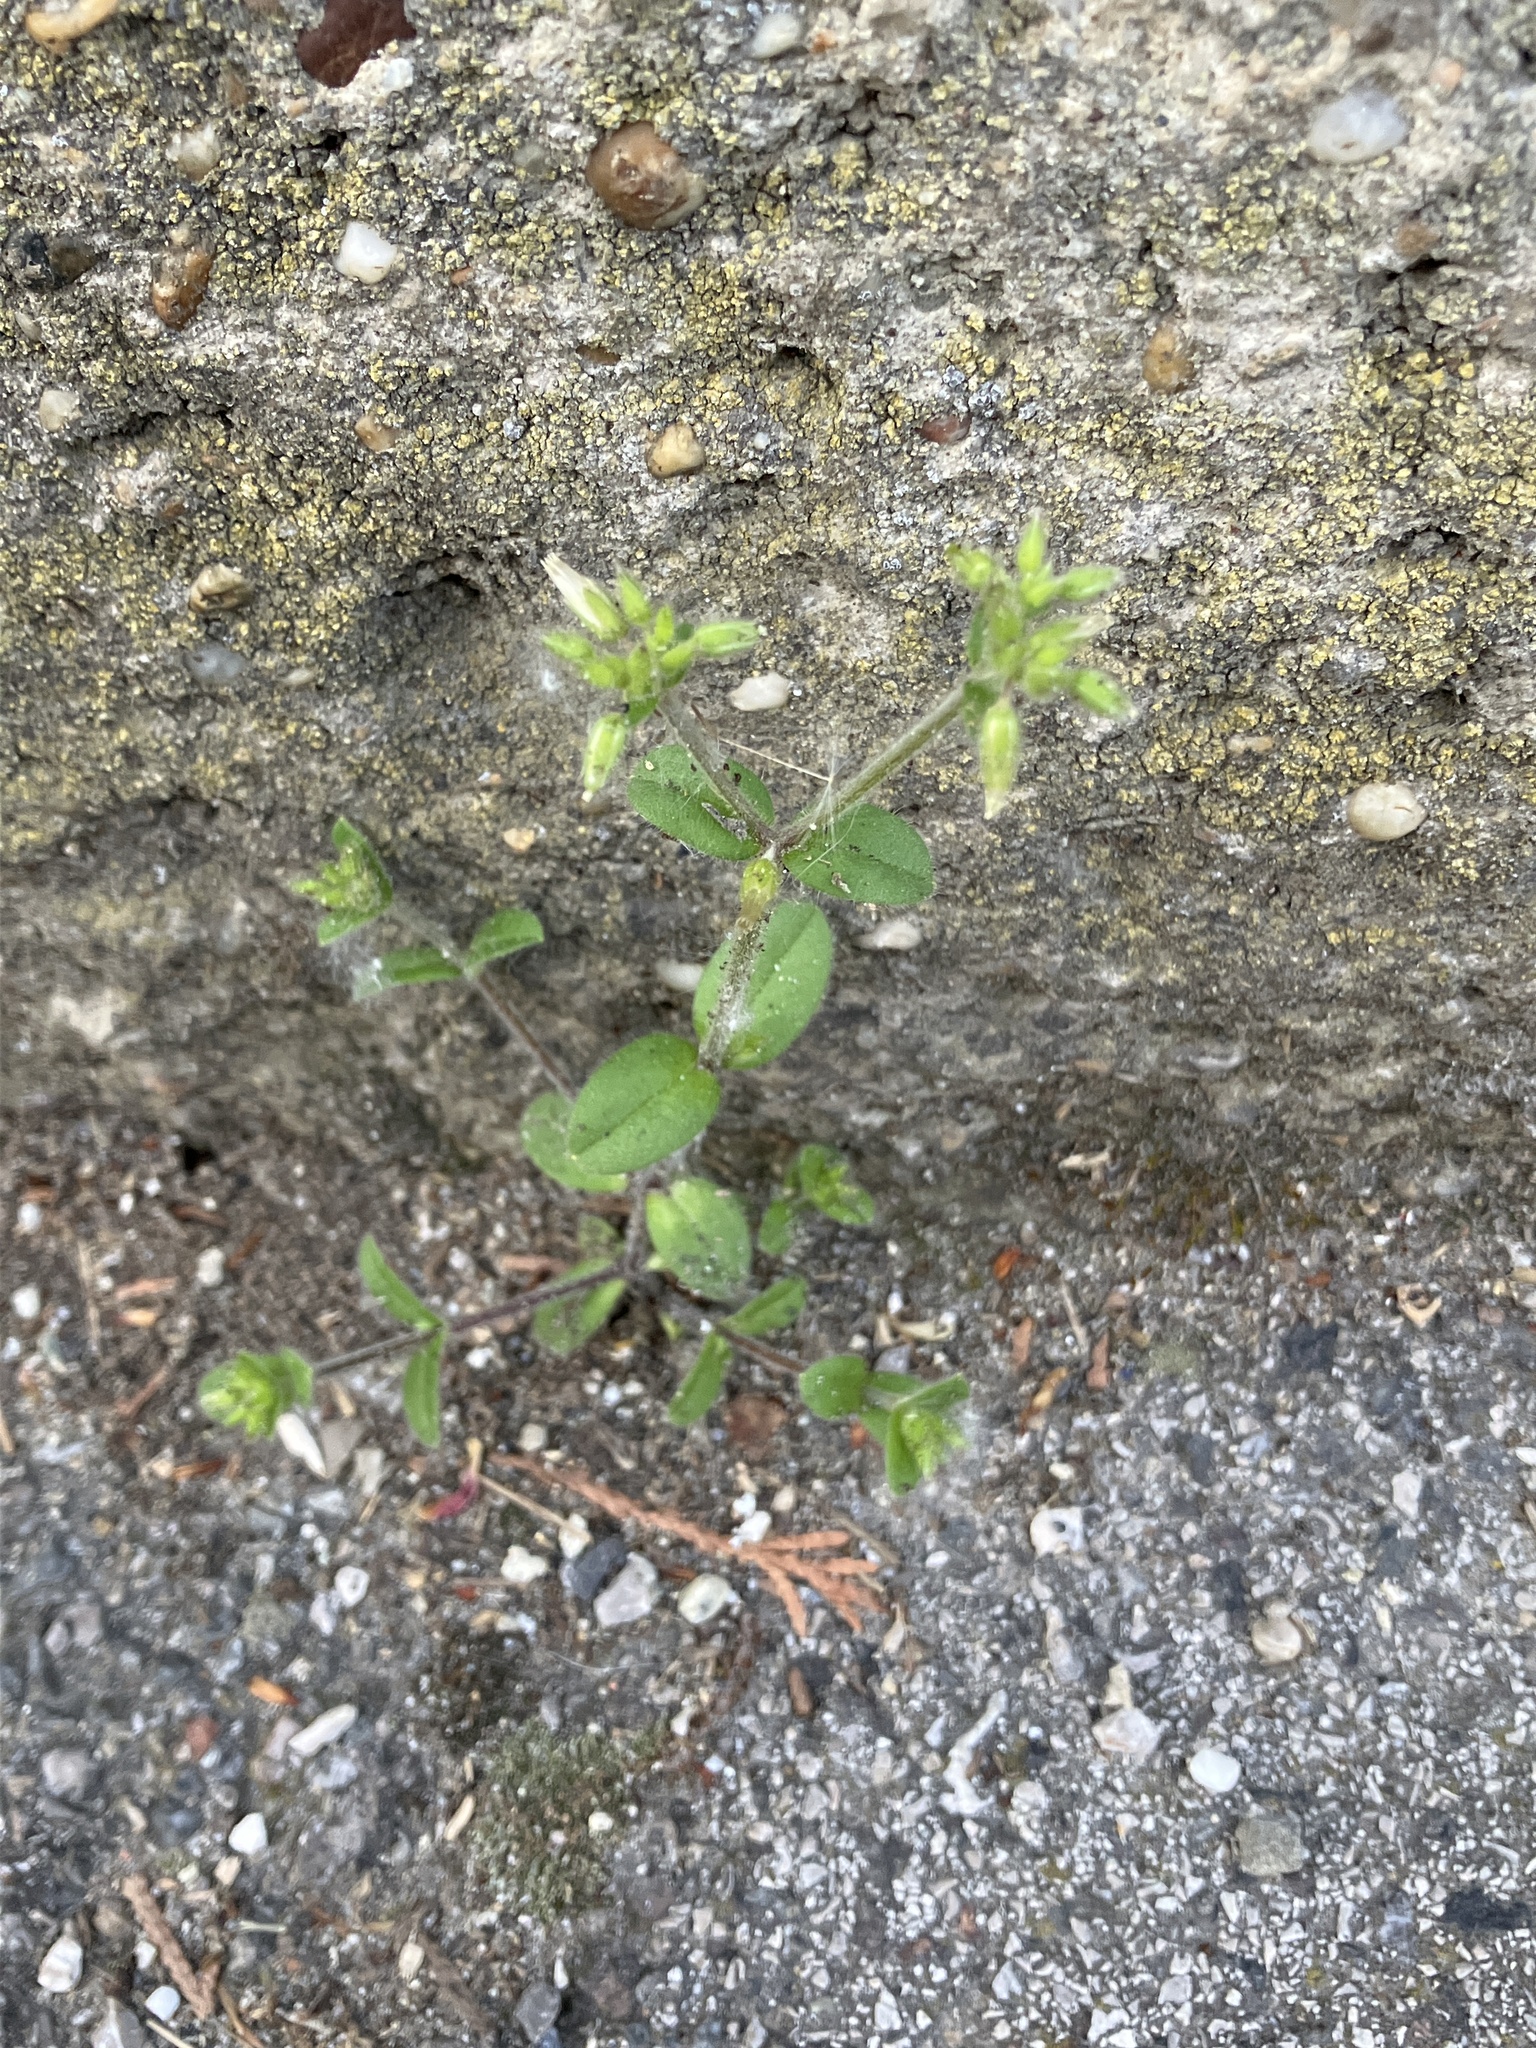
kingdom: Plantae
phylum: Tracheophyta
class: Magnoliopsida
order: Caryophyllales
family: Caryophyllaceae
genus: Cerastium
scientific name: Cerastium glomeratum
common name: Sticky chickweed
